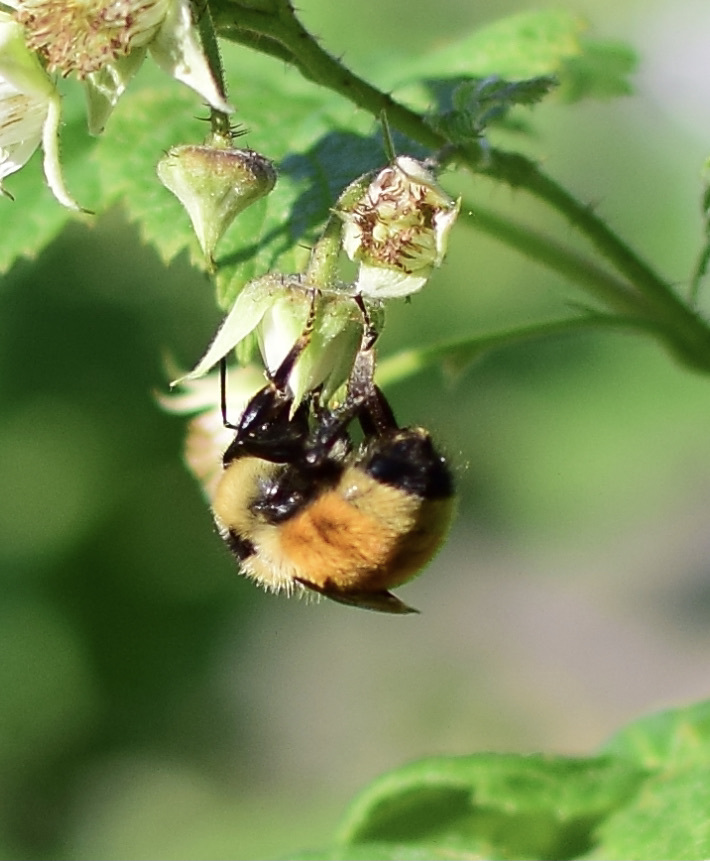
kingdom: Animalia
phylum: Arthropoda
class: Insecta
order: Hymenoptera
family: Apidae
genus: Bombus
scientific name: Bombus ternarius
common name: Tri-colored bumble bee
